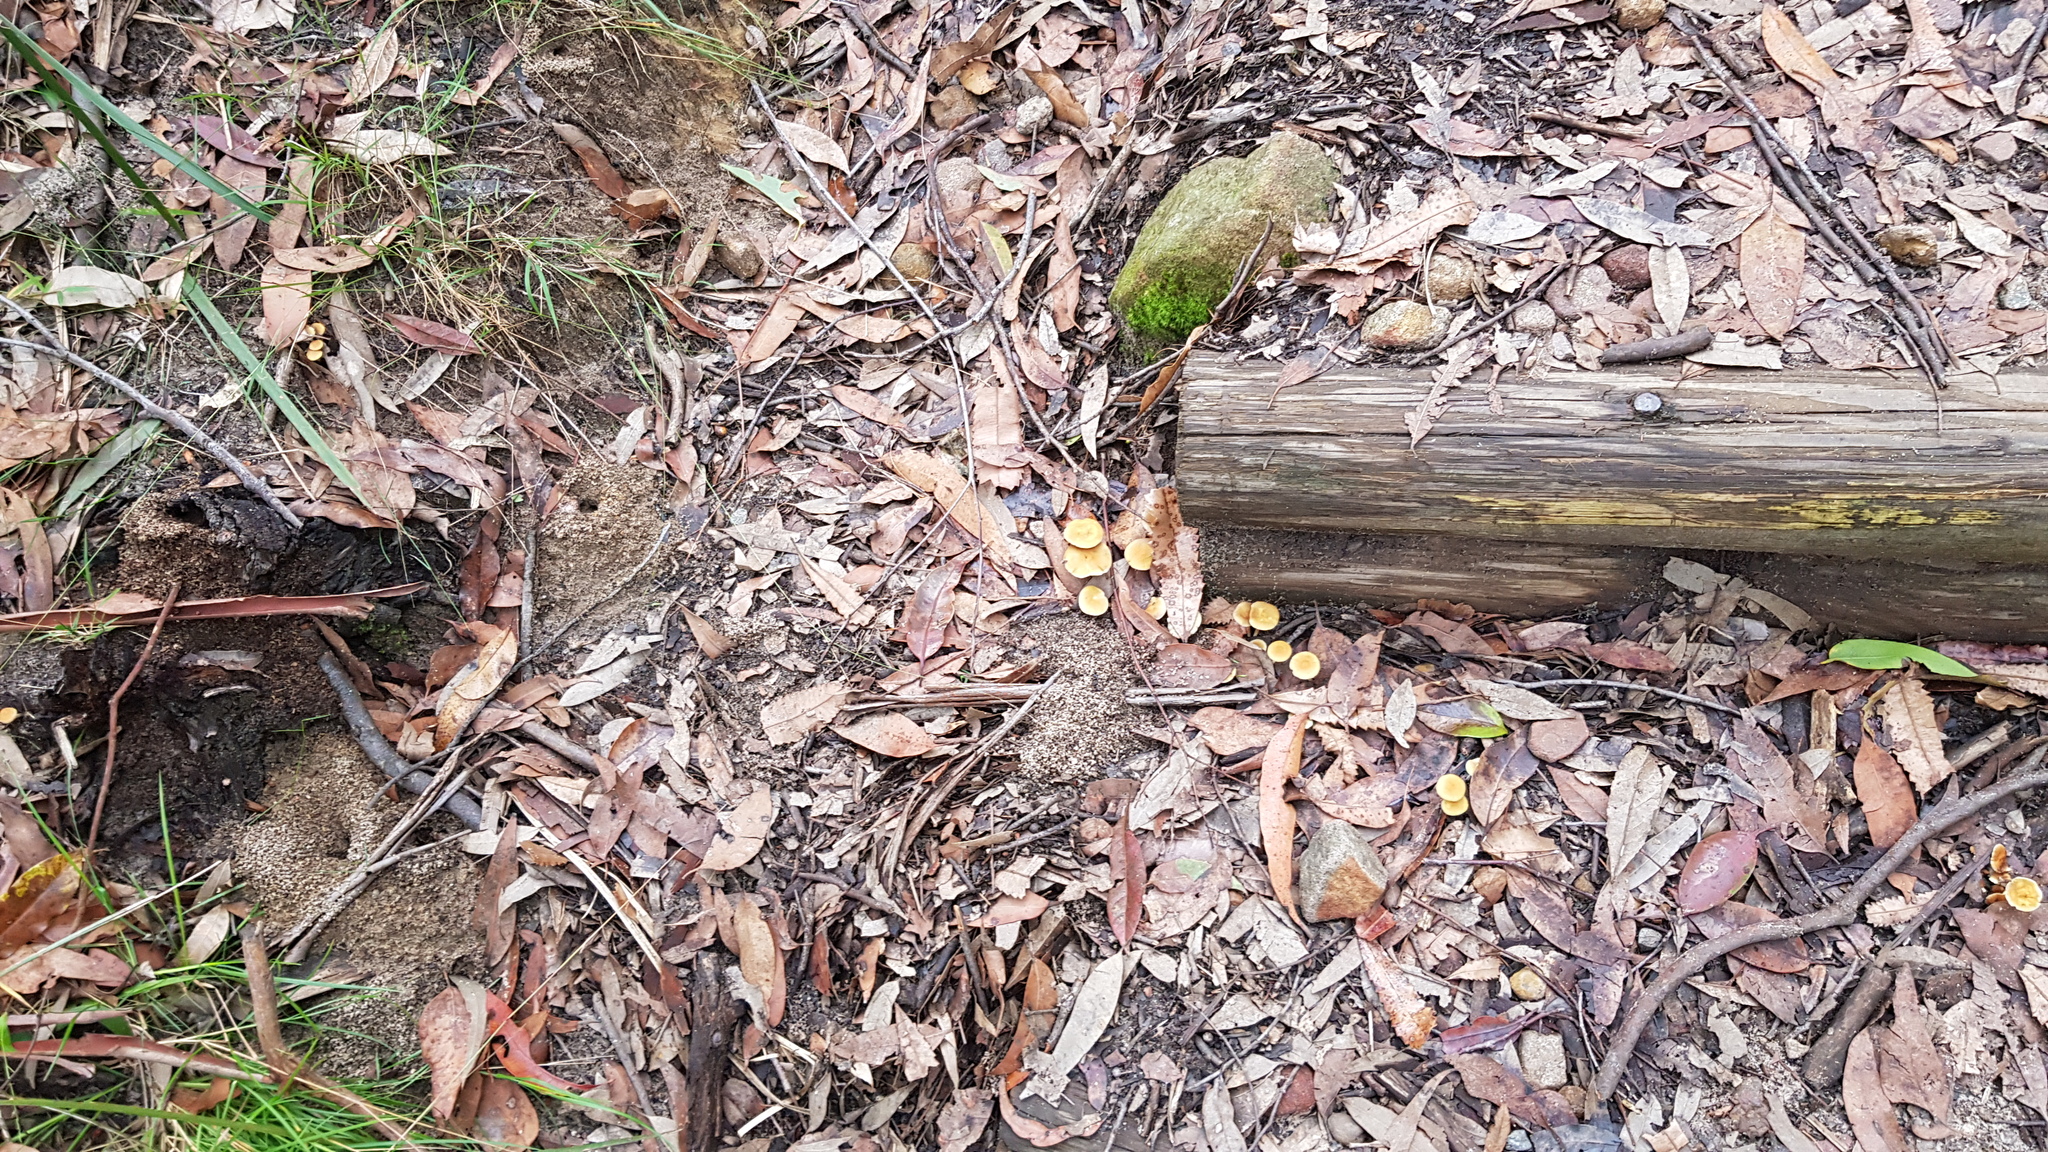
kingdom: Fungi
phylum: Basidiomycota
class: Agaricomycetes
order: Agaricales
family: Strophariaceae
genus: Hypholoma
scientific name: Hypholoma fasciculare
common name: Sulphur tuft
